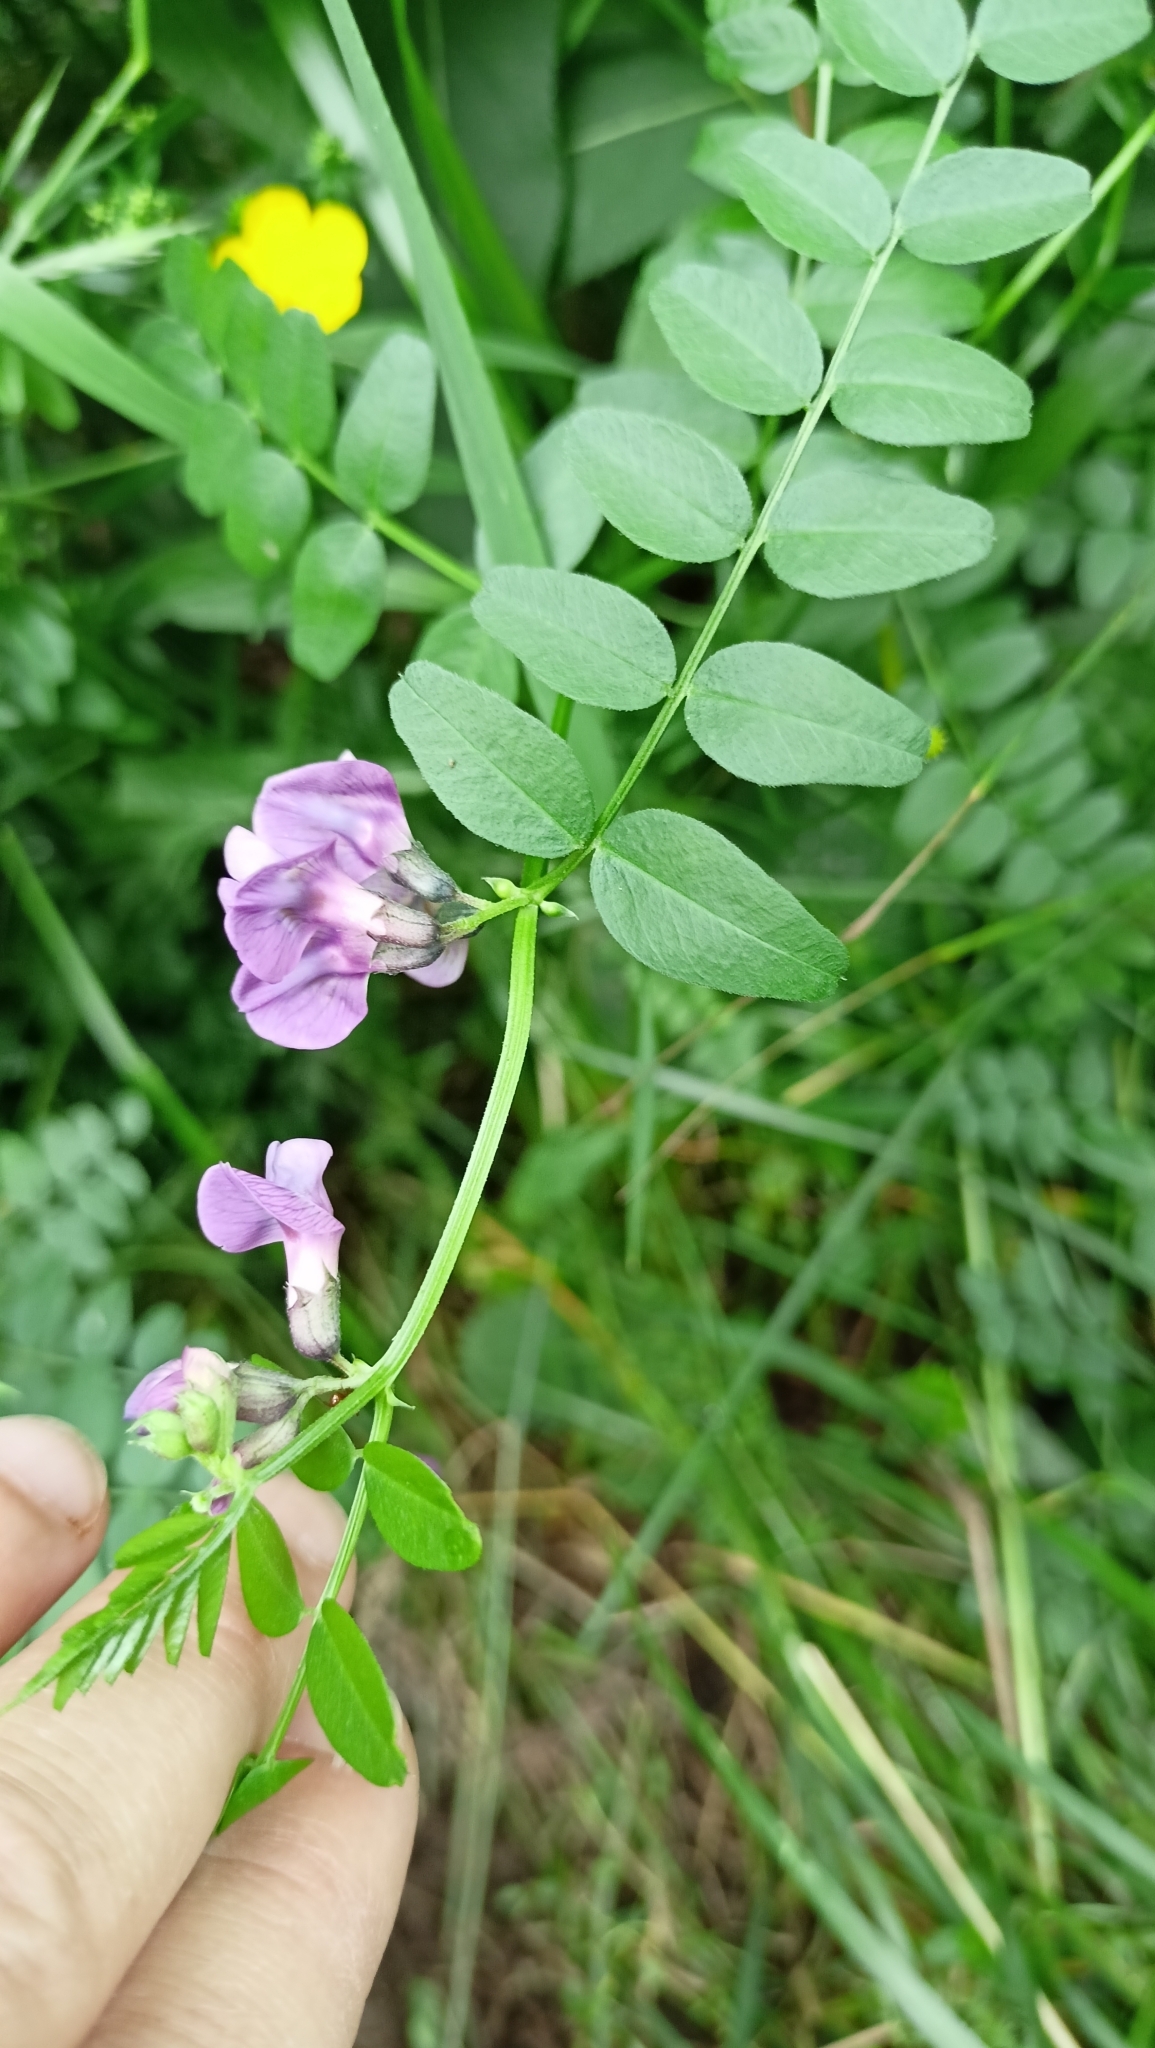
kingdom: Plantae
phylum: Tracheophyta
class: Magnoliopsida
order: Fabales
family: Fabaceae
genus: Vicia
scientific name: Vicia sepium
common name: Bush vetch
